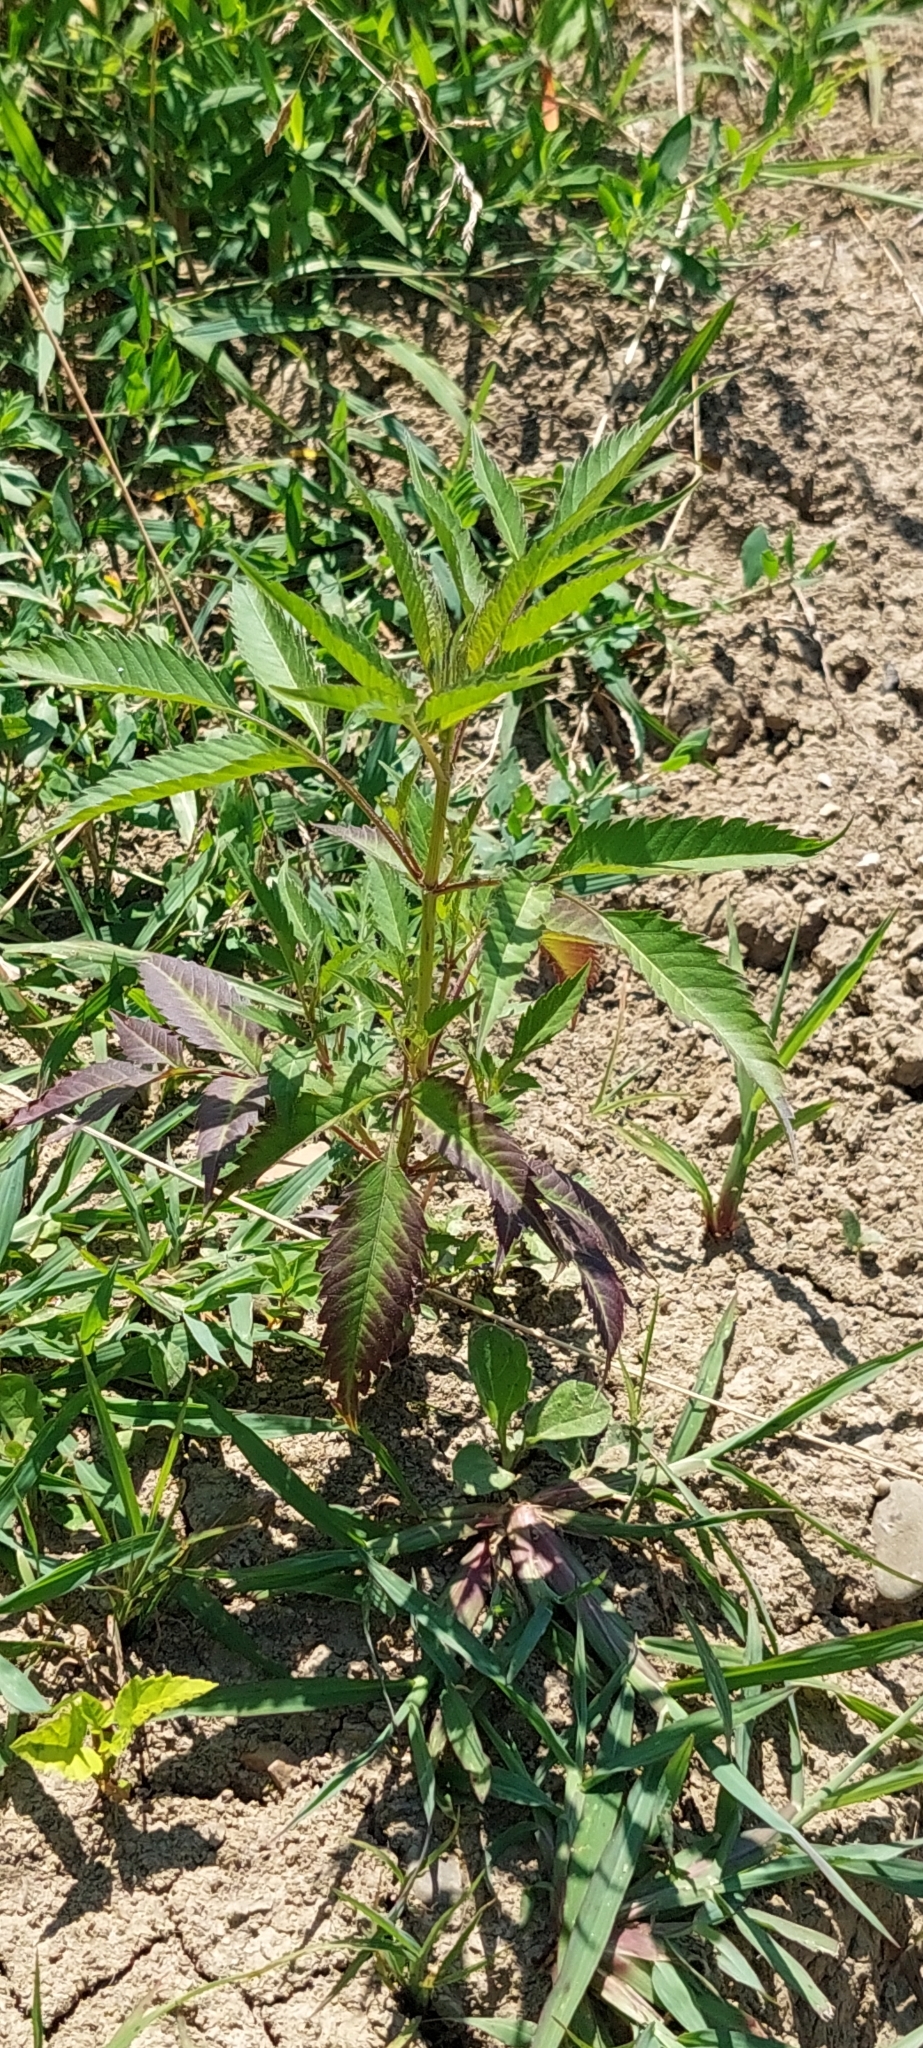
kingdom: Plantae
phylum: Tracheophyta
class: Magnoliopsida
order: Asterales
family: Asteraceae
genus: Bidens
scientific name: Bidens frondosa
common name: Beggarticks
